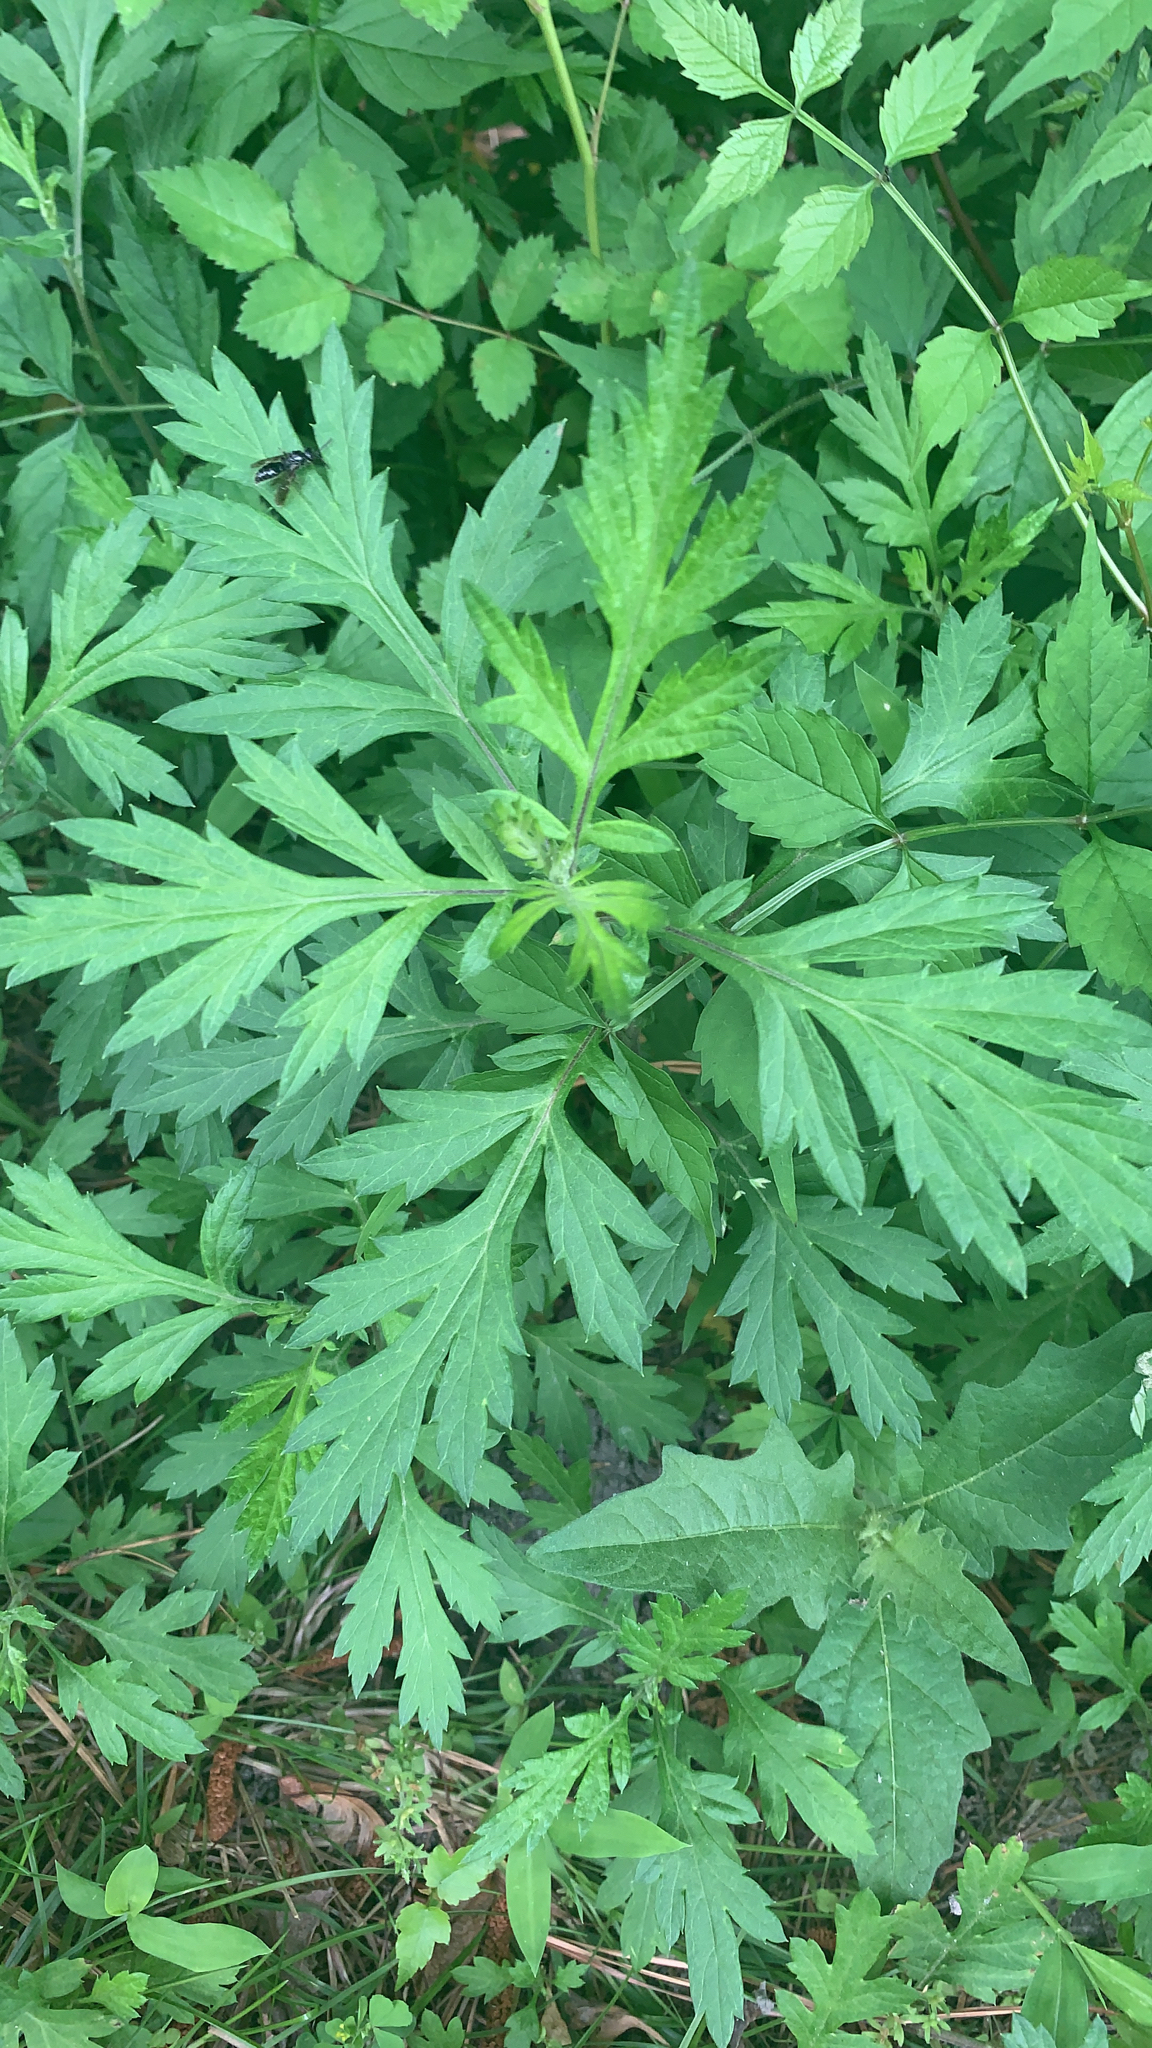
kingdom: Plantae
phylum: Tracheophyta
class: Magnoliopsida
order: Asterales
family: Asteraceae
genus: Artemisia
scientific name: Artemisia vulgaris
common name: Mugwort
